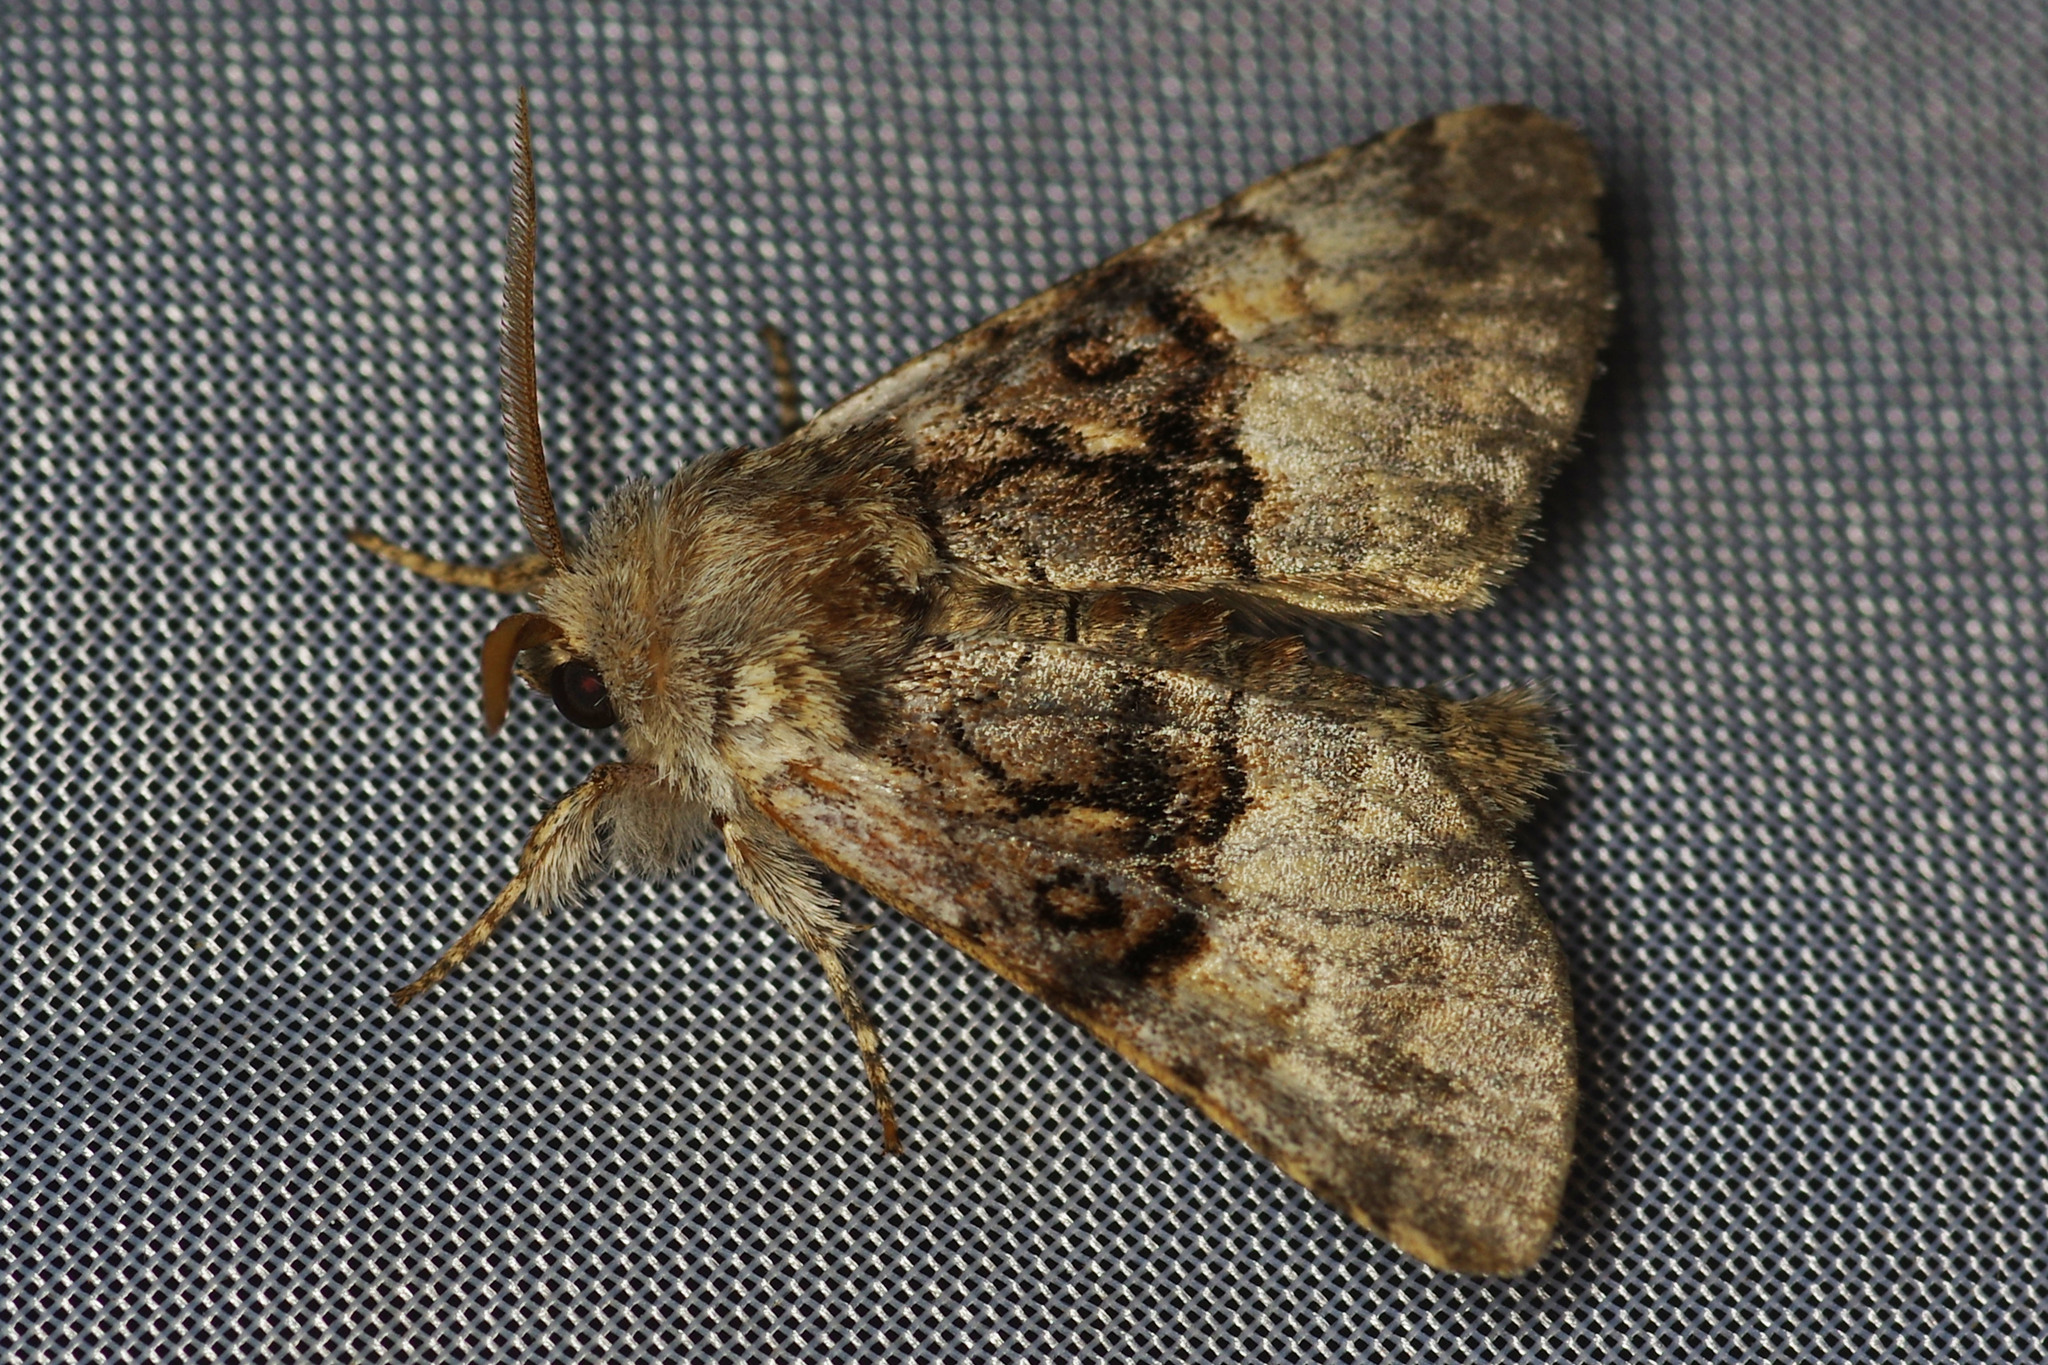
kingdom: Animalia
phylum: Arthropoda
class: Insecta
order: Lepidoptera
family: Noctuidae
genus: Colocasia
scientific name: Colocasia coryli
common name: Nut-tree tussock
